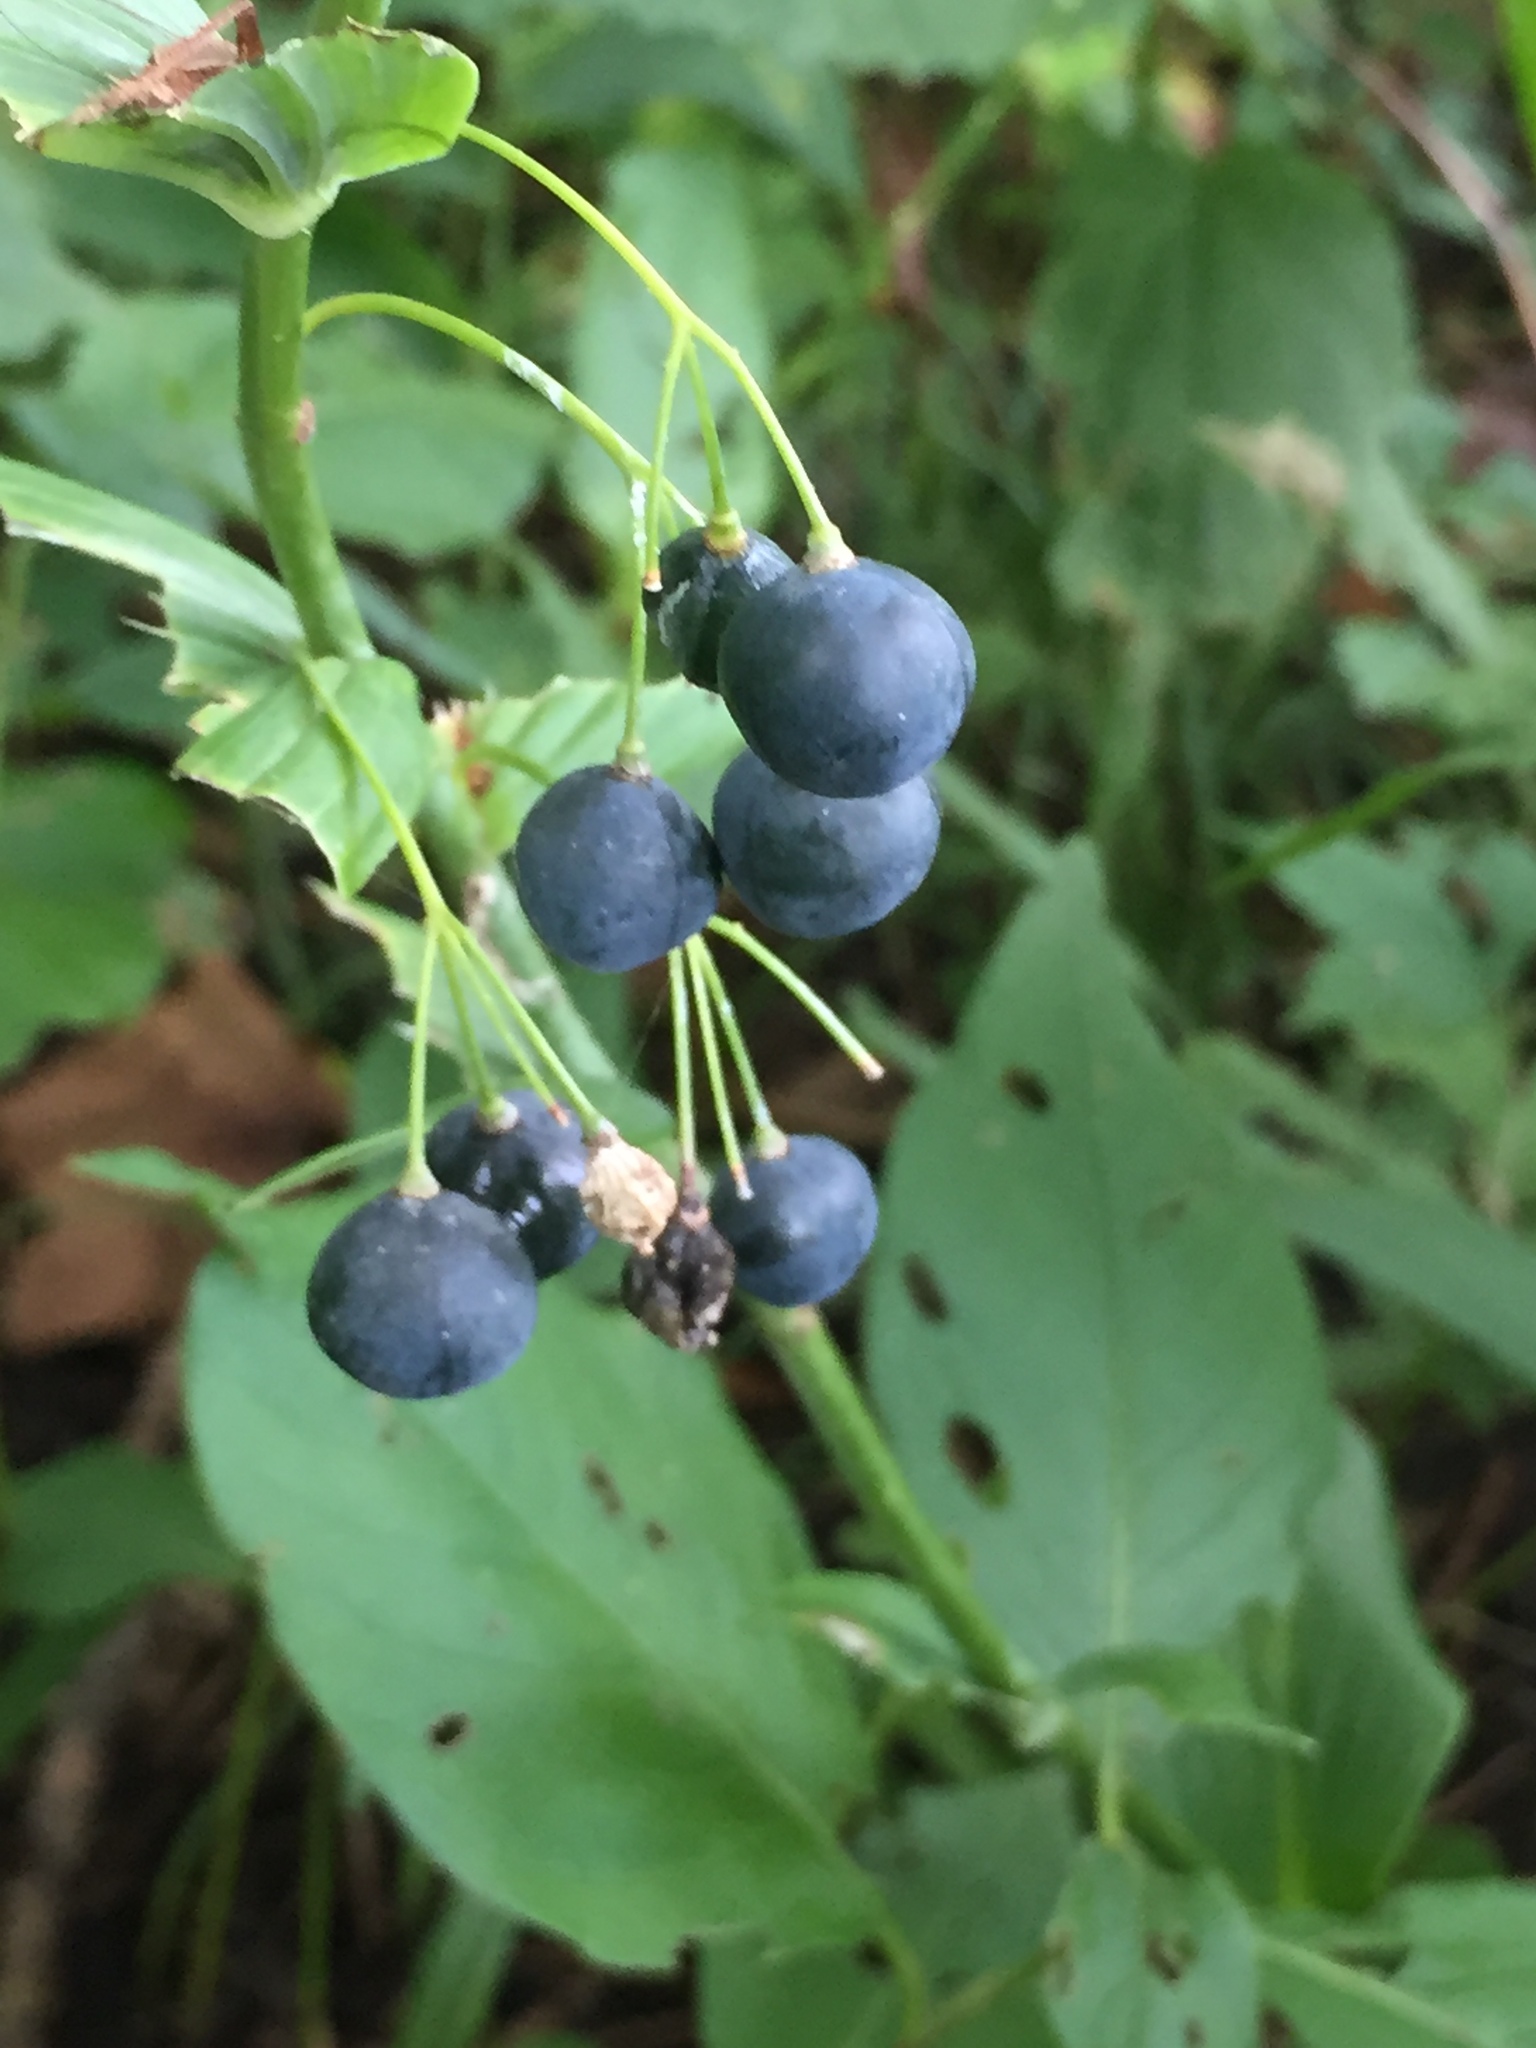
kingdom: Plantae
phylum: Tracheophyta
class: Liliopsida
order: Asparagales
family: Asparagaceae
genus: Polygonatum
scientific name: Polygonatum biflorum
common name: American solomon's-seal
